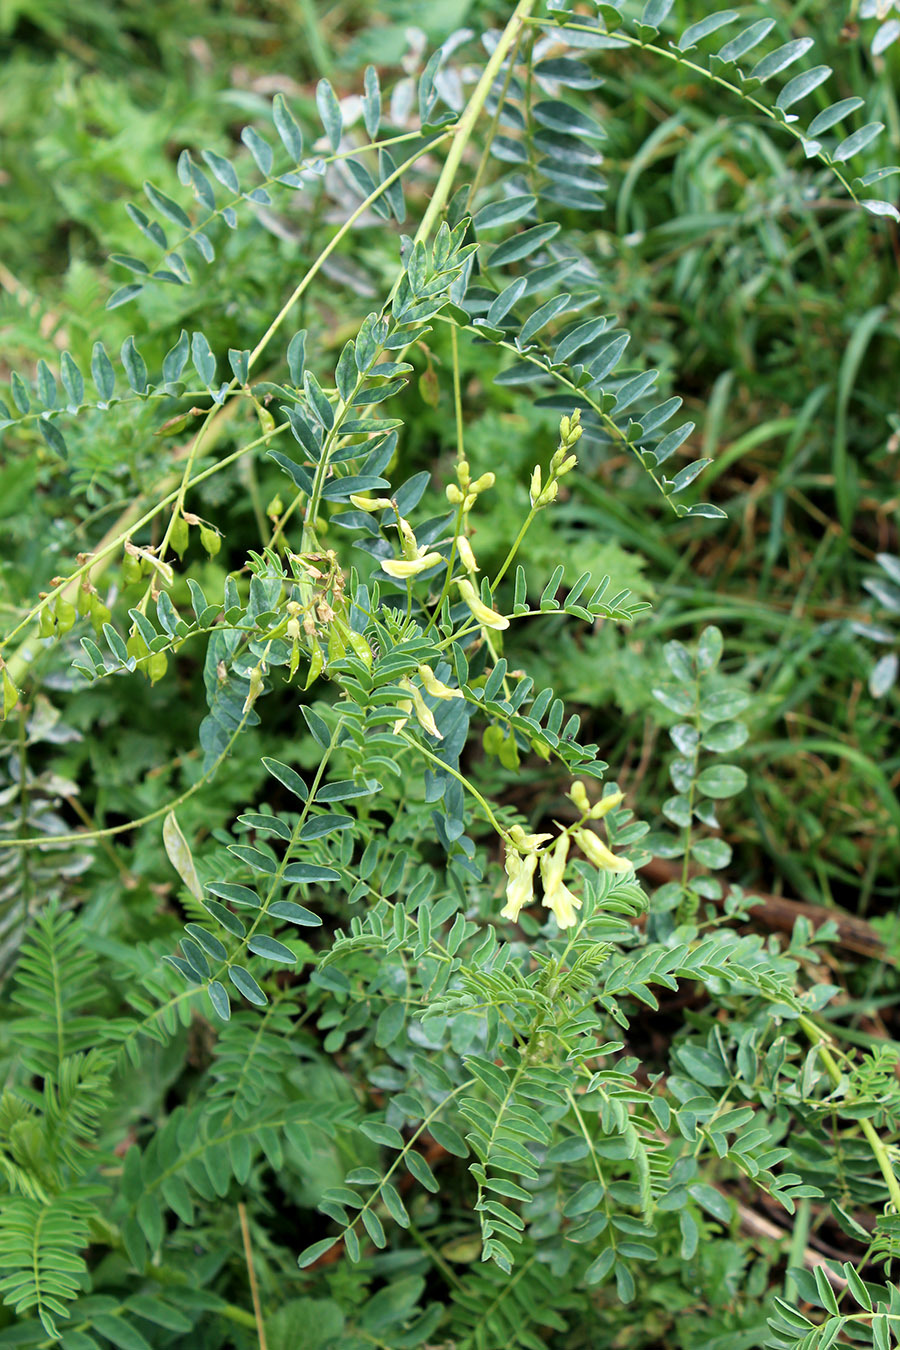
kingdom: Plantae
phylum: Tracheophyta
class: Magnoliopsida
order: Fabales
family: Fabaceae
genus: Astragalus
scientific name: Astragalus galegiformis
